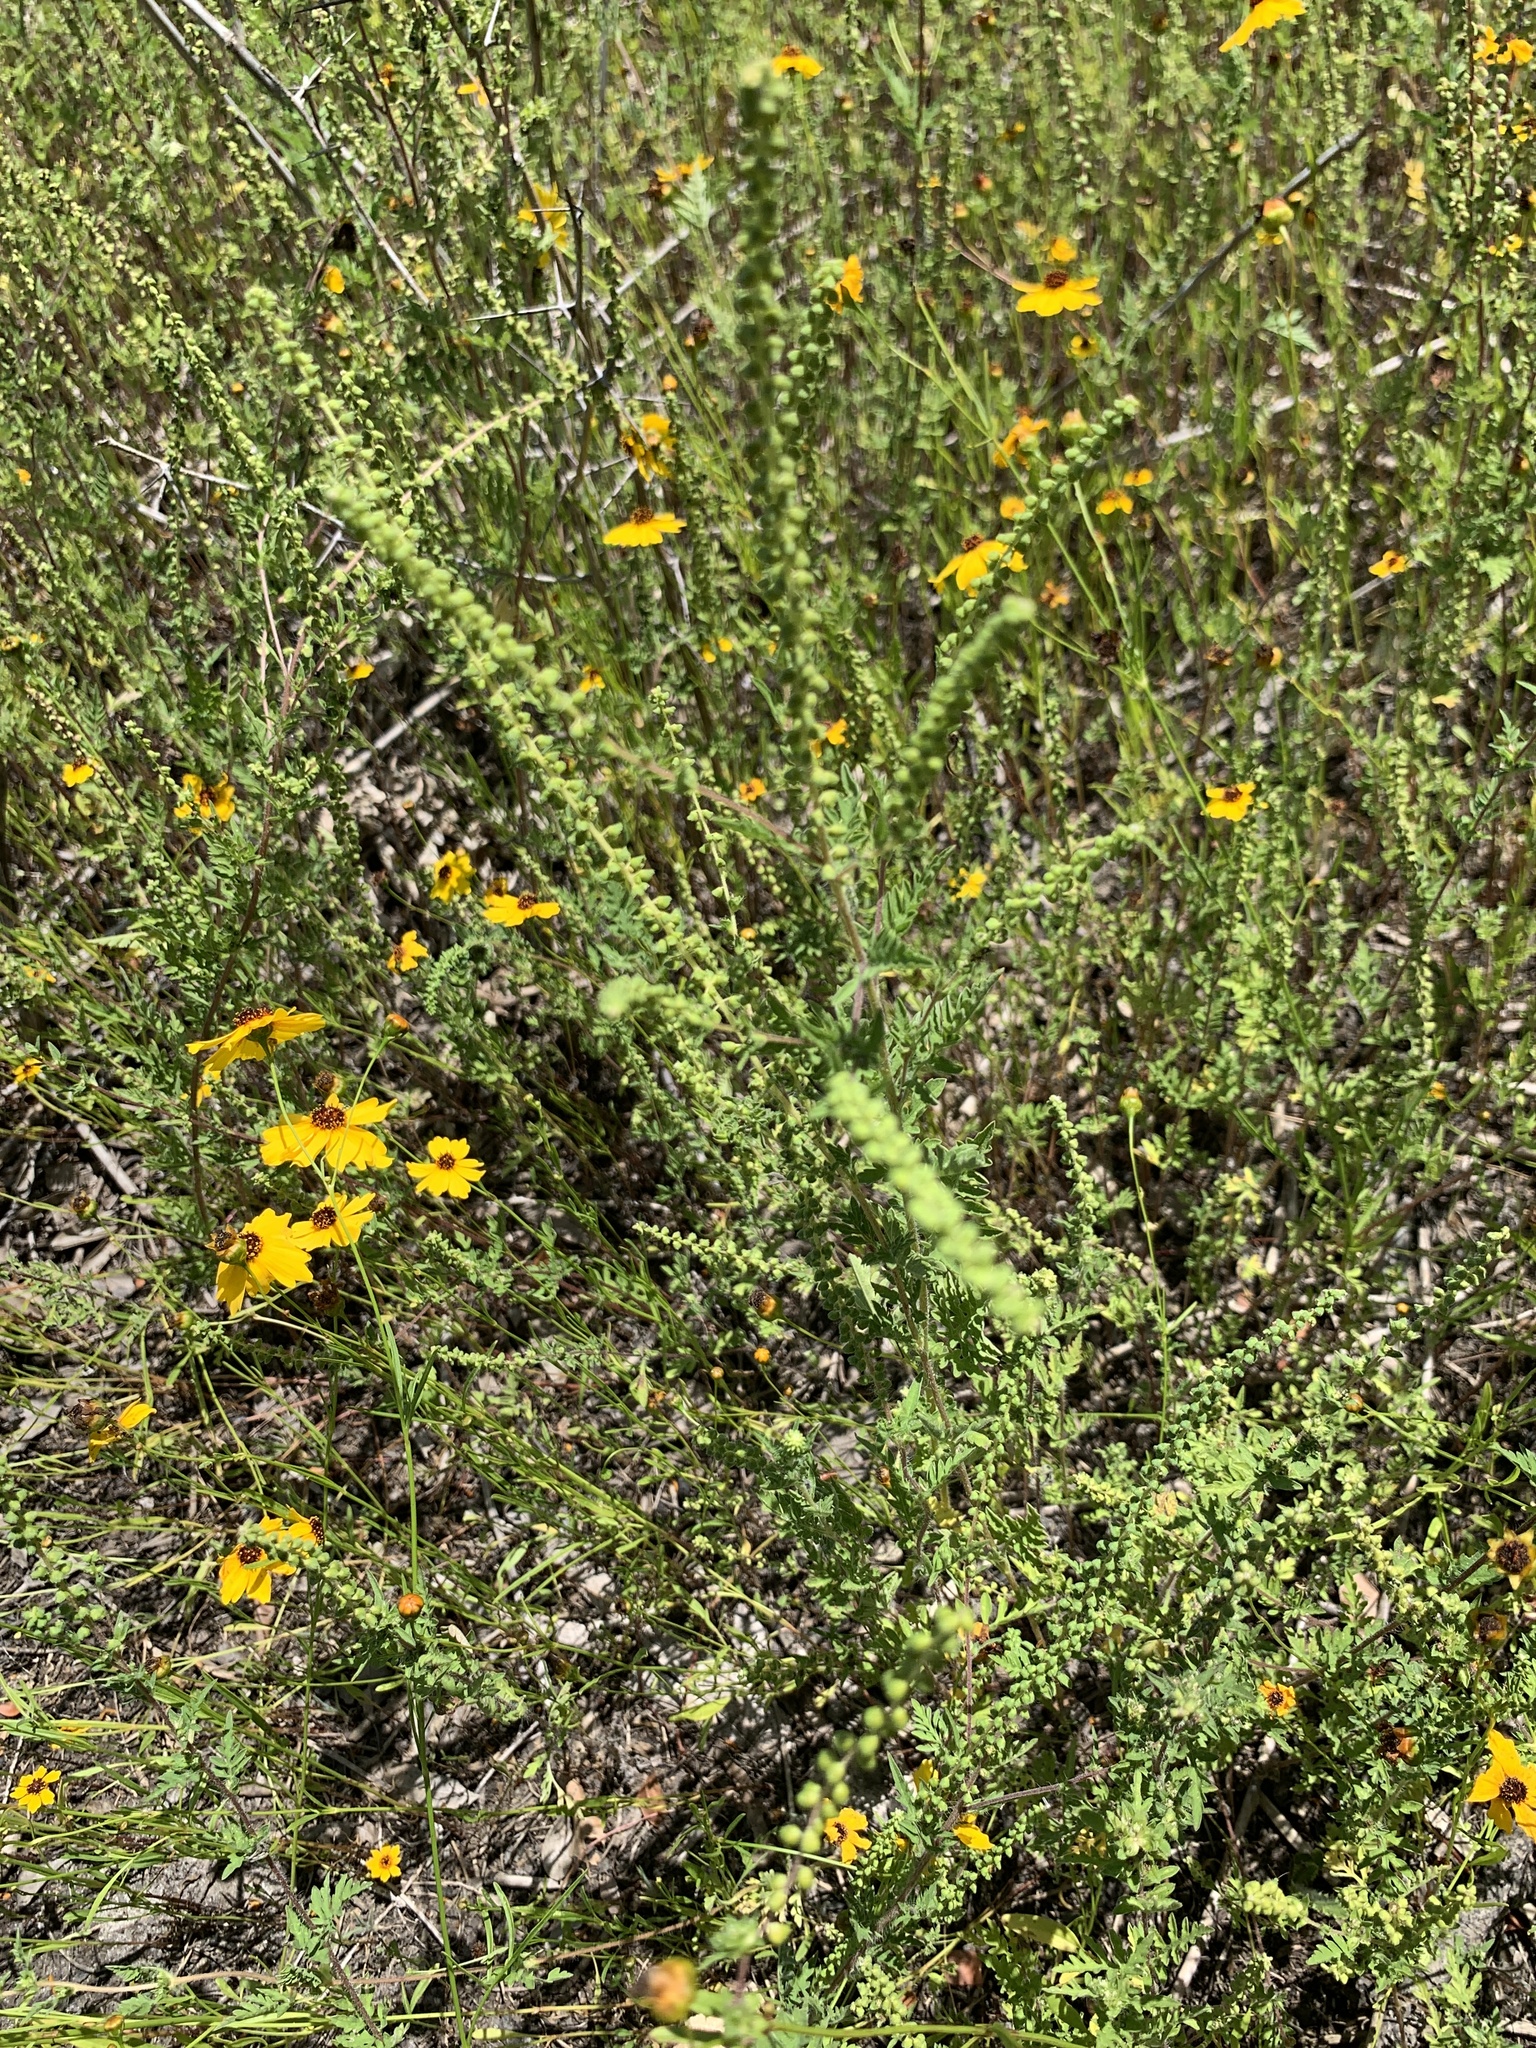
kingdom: Plantae
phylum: Tracheophyta
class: Magnoliopsida
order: Asterales
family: Asteraceae
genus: Ambrosia
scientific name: Ambrosia artemisiifolia
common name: Annual ragweed
